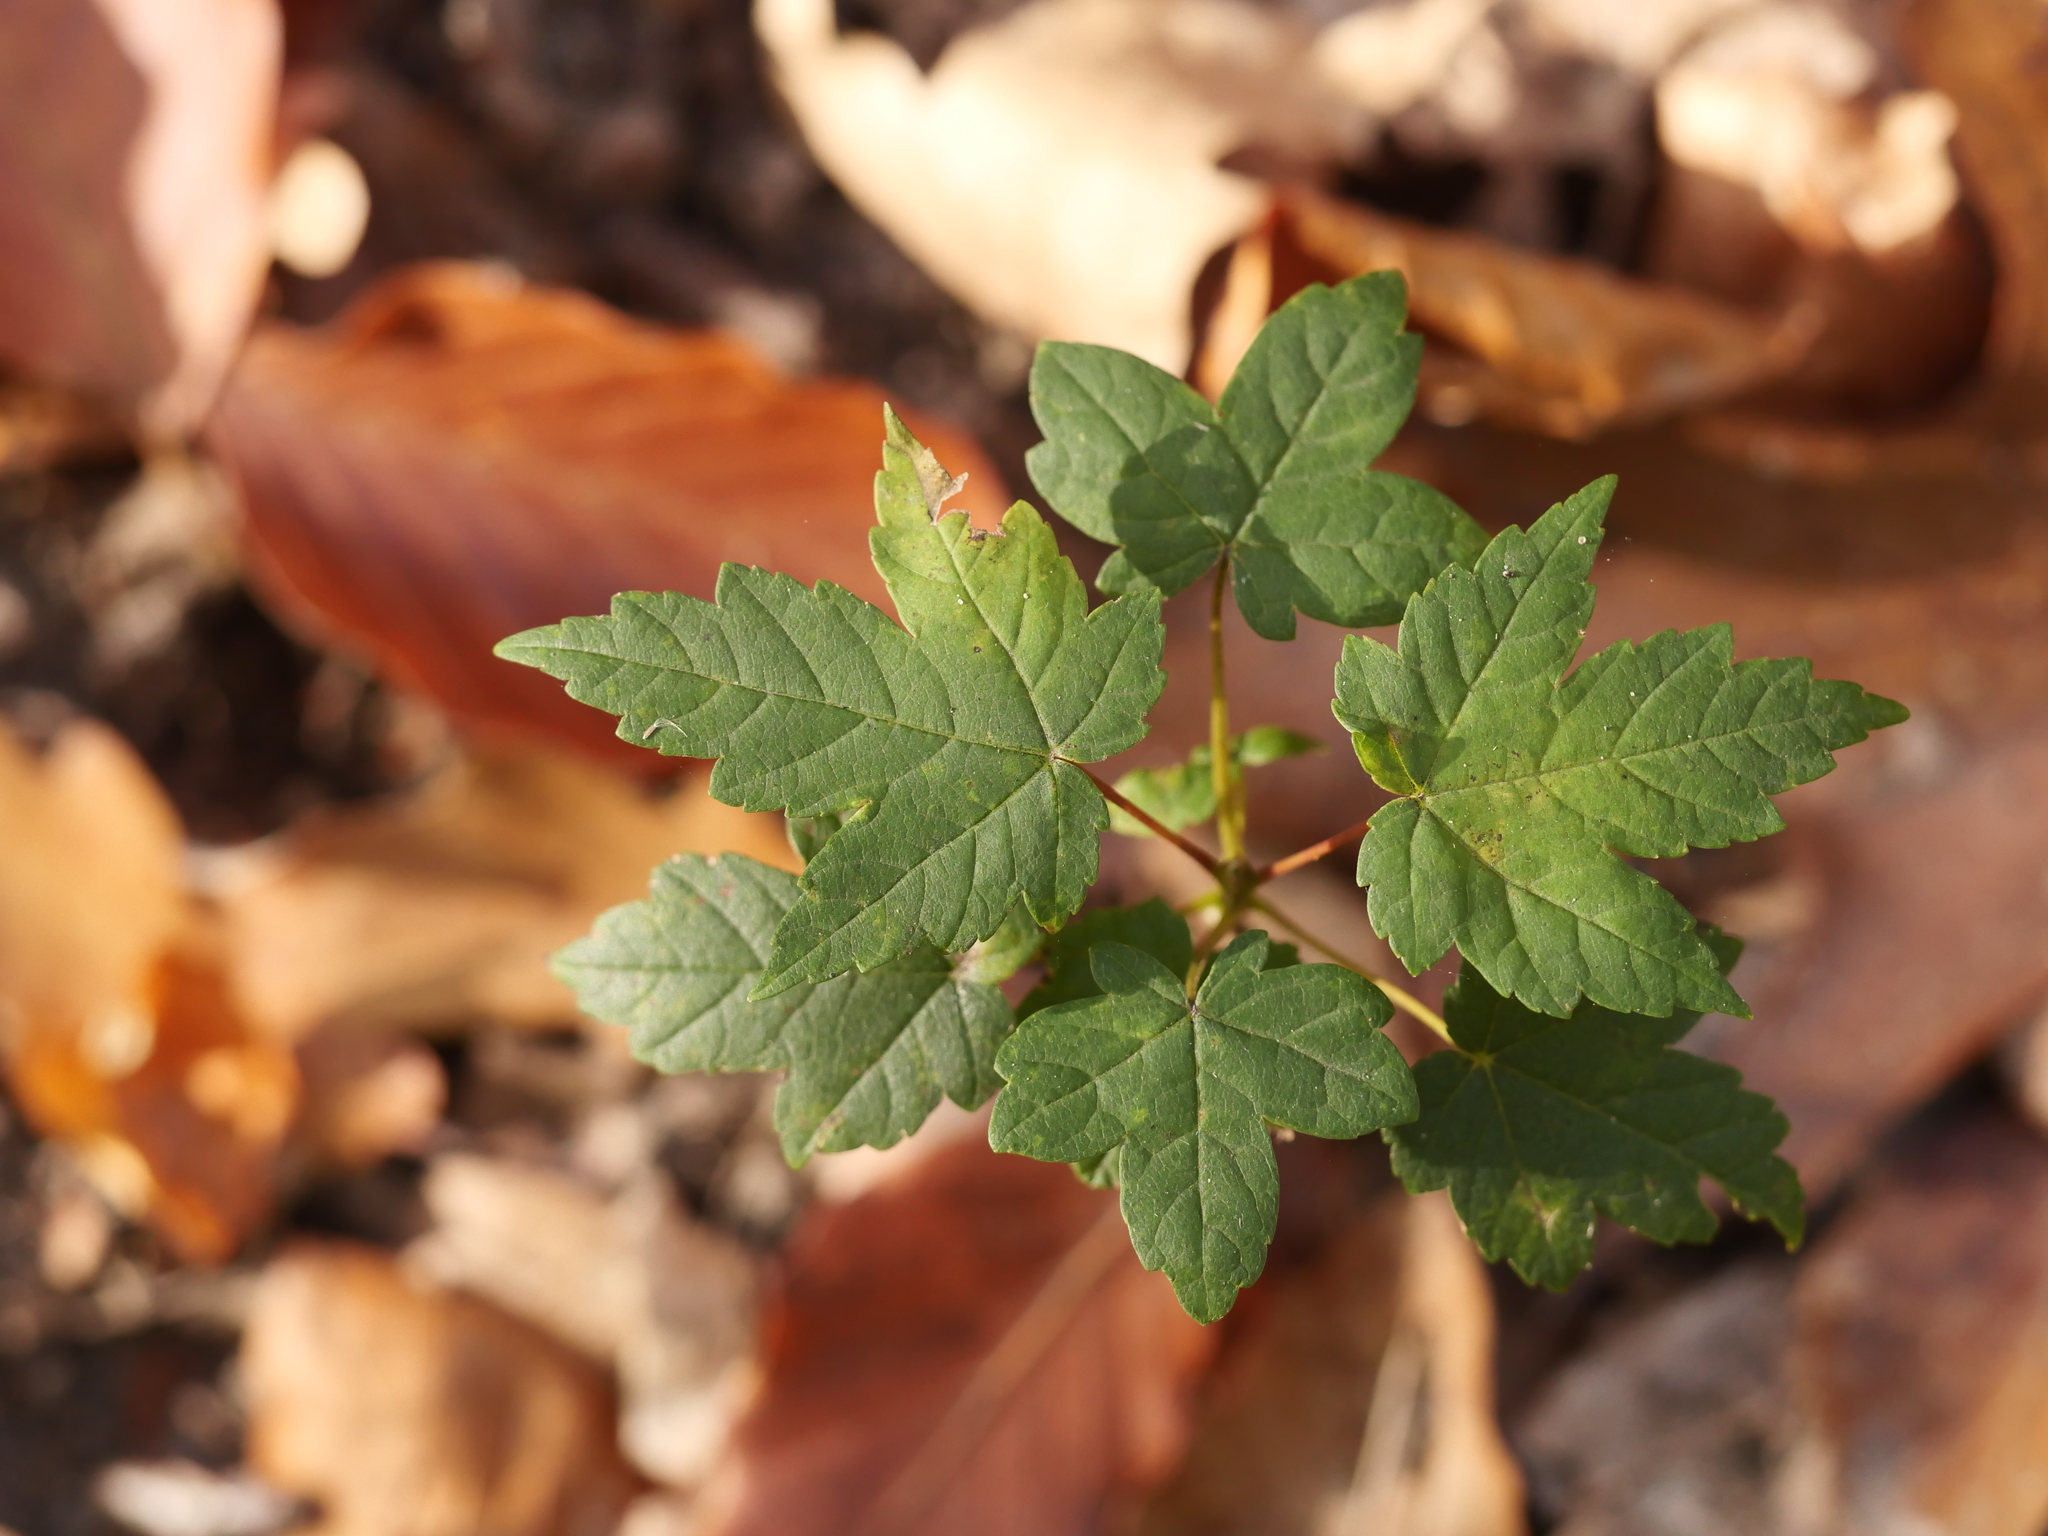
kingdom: Plantae
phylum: Tracheophyta
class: Magnoliopsida
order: Sapindales
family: Sapindaceae
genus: Acer
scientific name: Acer pseudoplatanus
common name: Sycamore
